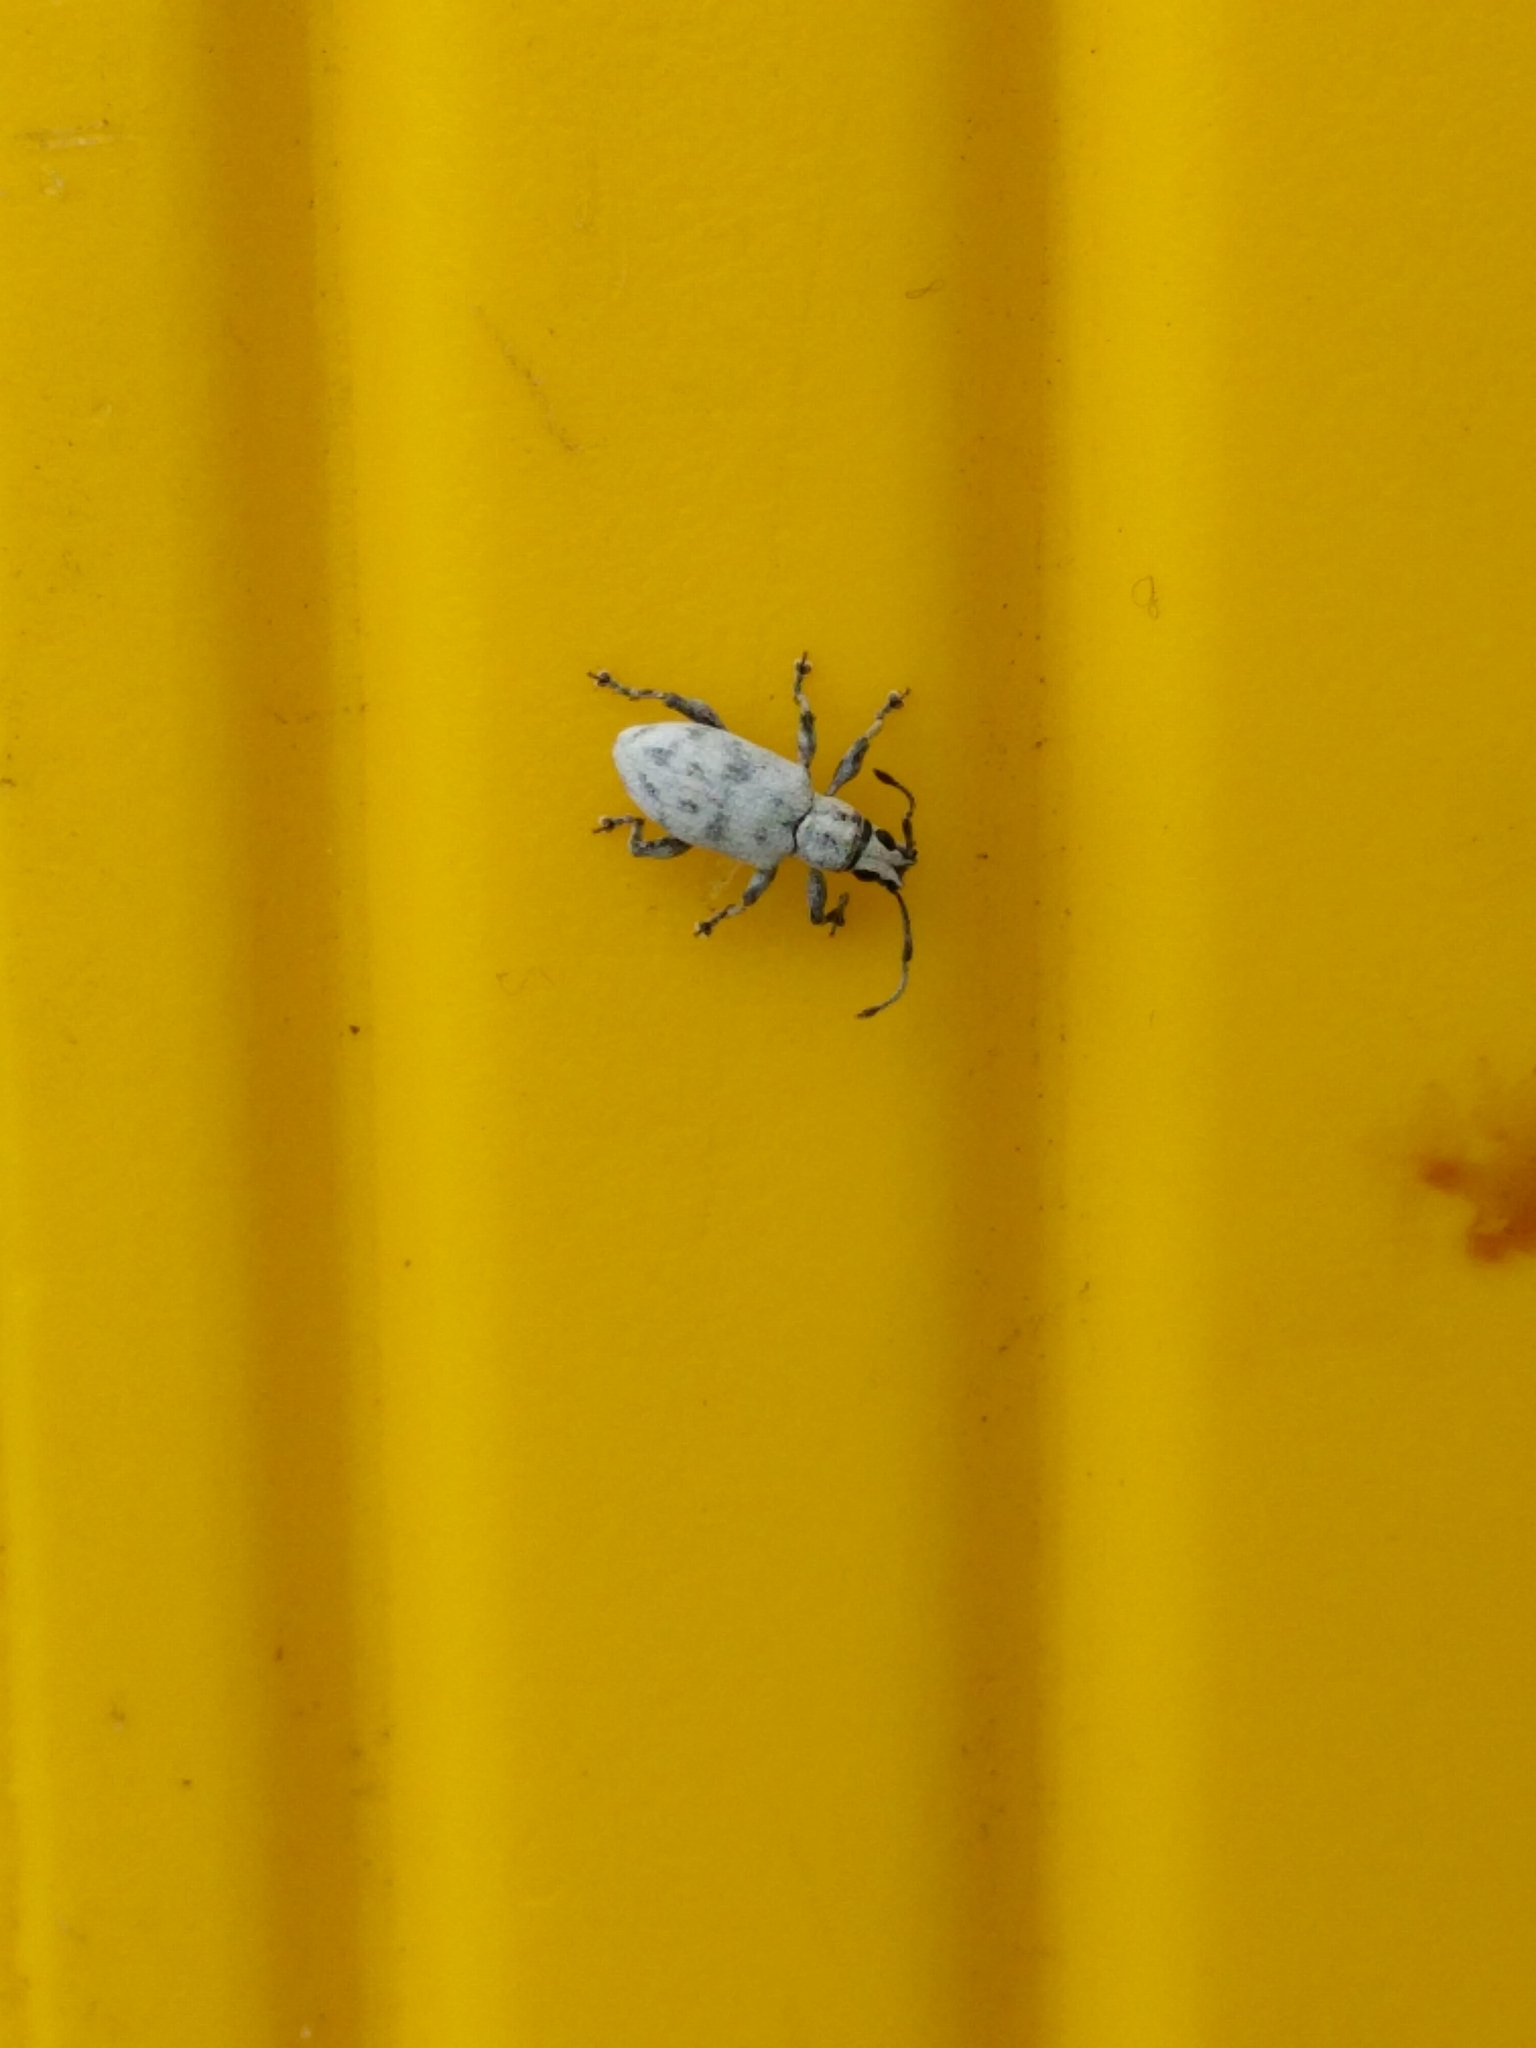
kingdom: Animalia
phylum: Arthropoda
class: Insecta
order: Coleoptera
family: Curculionidae
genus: Myllocerus
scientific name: Myllocerus undecimpustulatus
